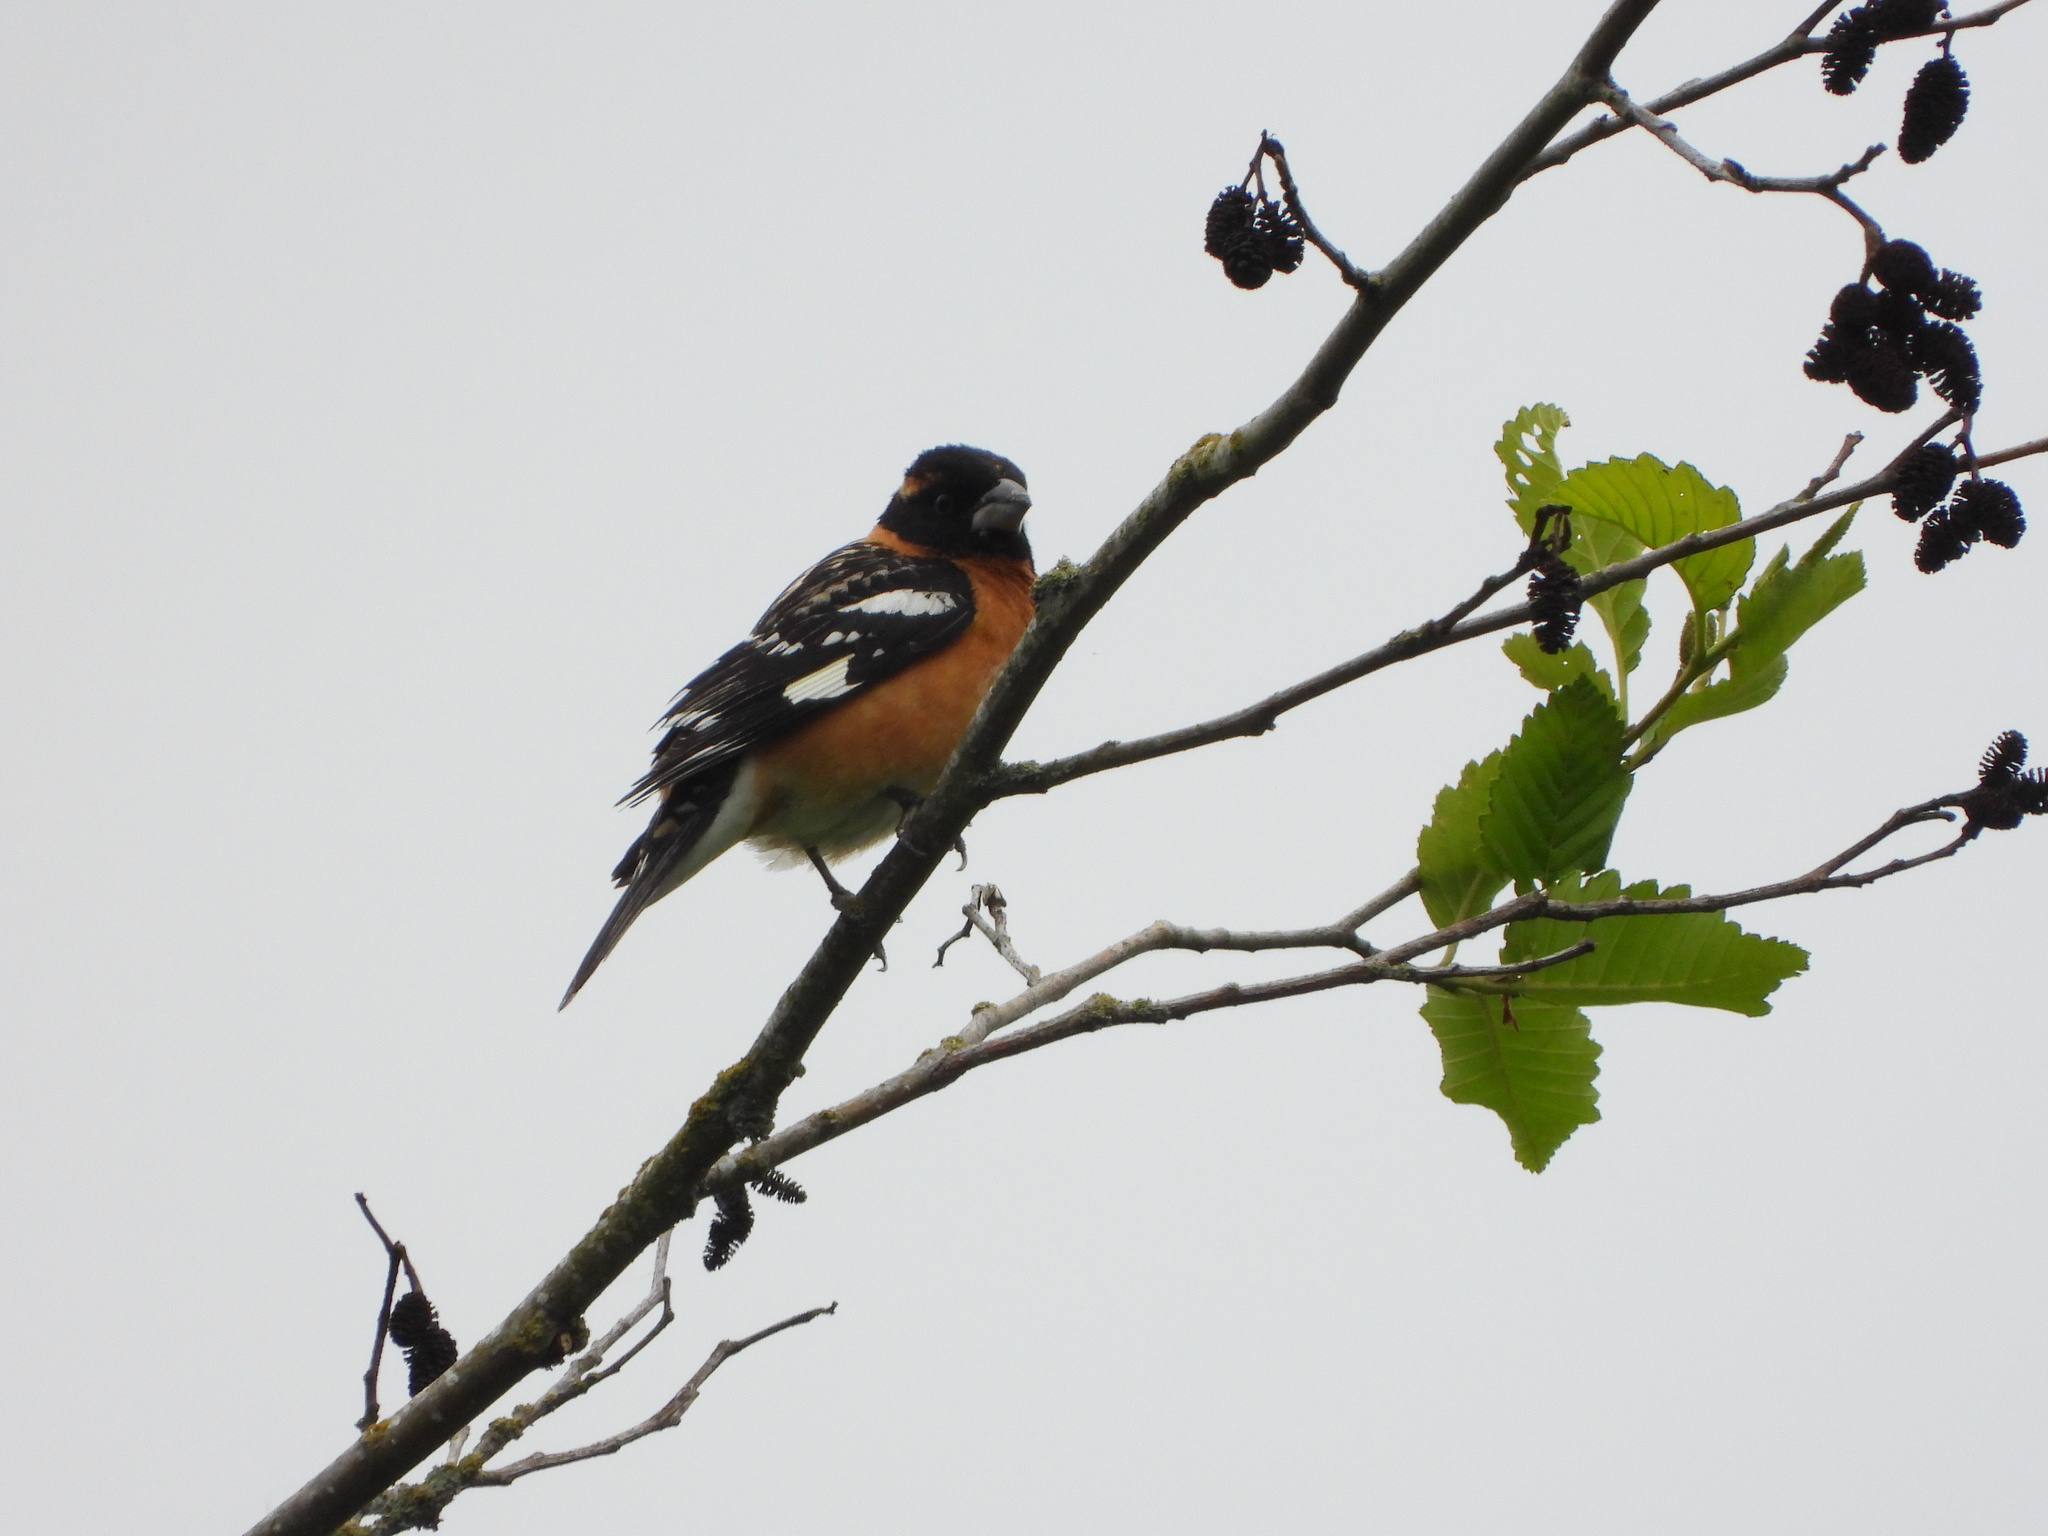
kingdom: Animalia
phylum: Chordata
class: Aves
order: Passeriformes
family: Cardinalidae
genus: Pheucticus
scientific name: Pheucticus melanocephalus
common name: Black-headed grosbeak
